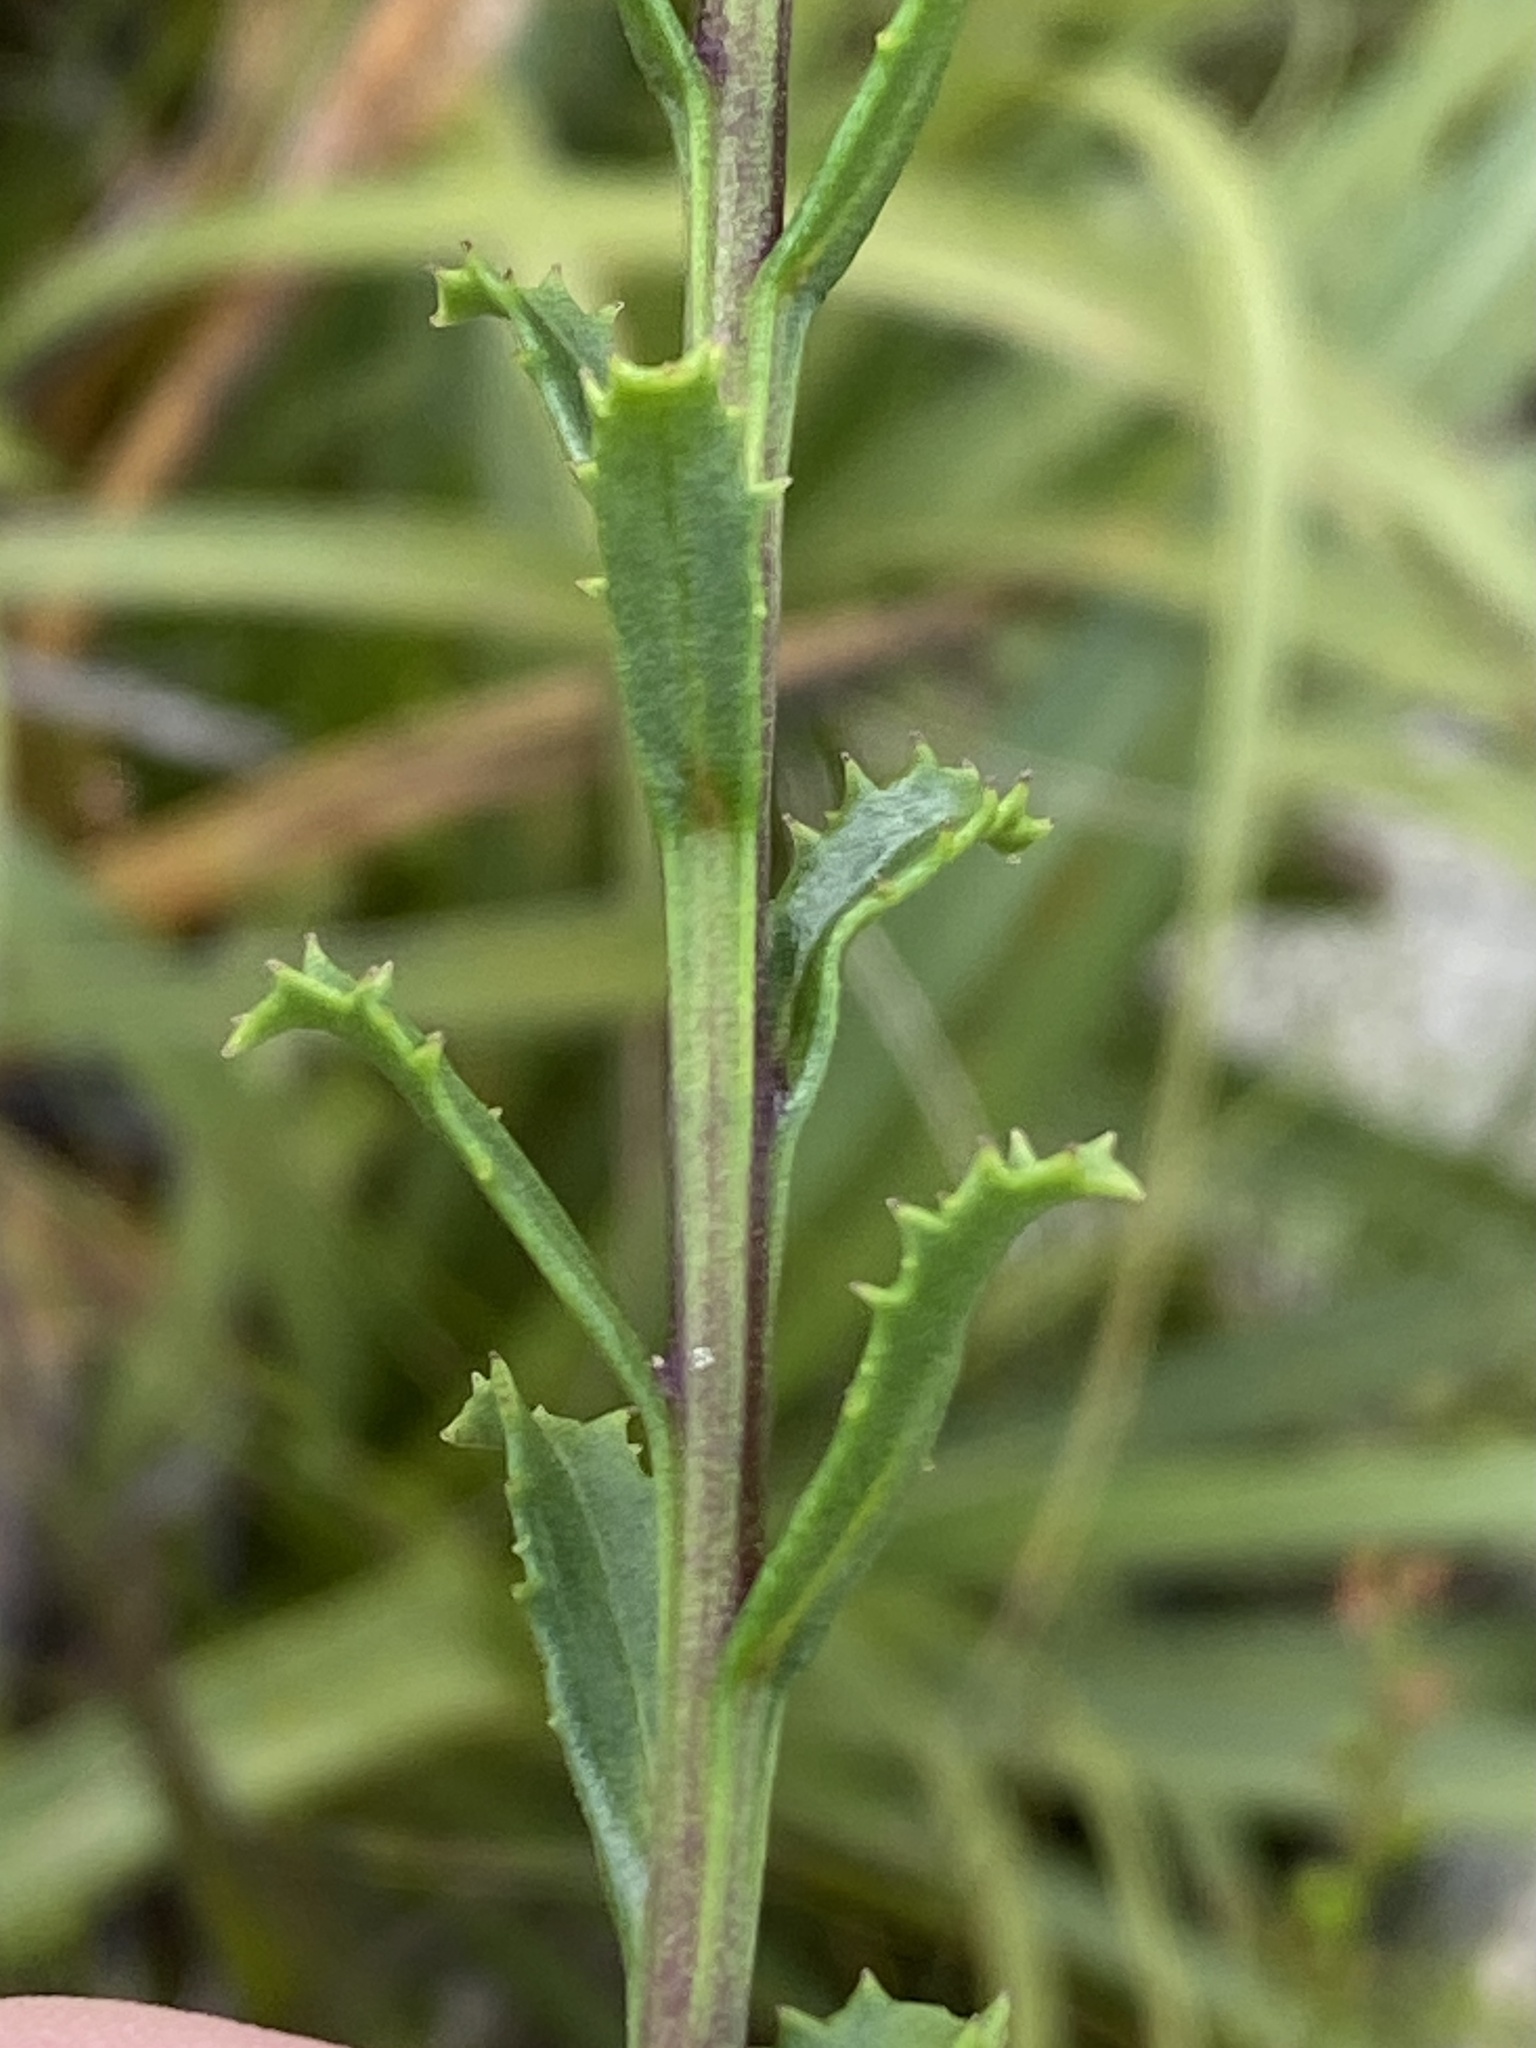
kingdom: Plantae
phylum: Tracheophyta
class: Magnoliopsida
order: Lamiales
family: Scrophulariaceae
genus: Pseudoselago
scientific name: Pseudoselago serrata
